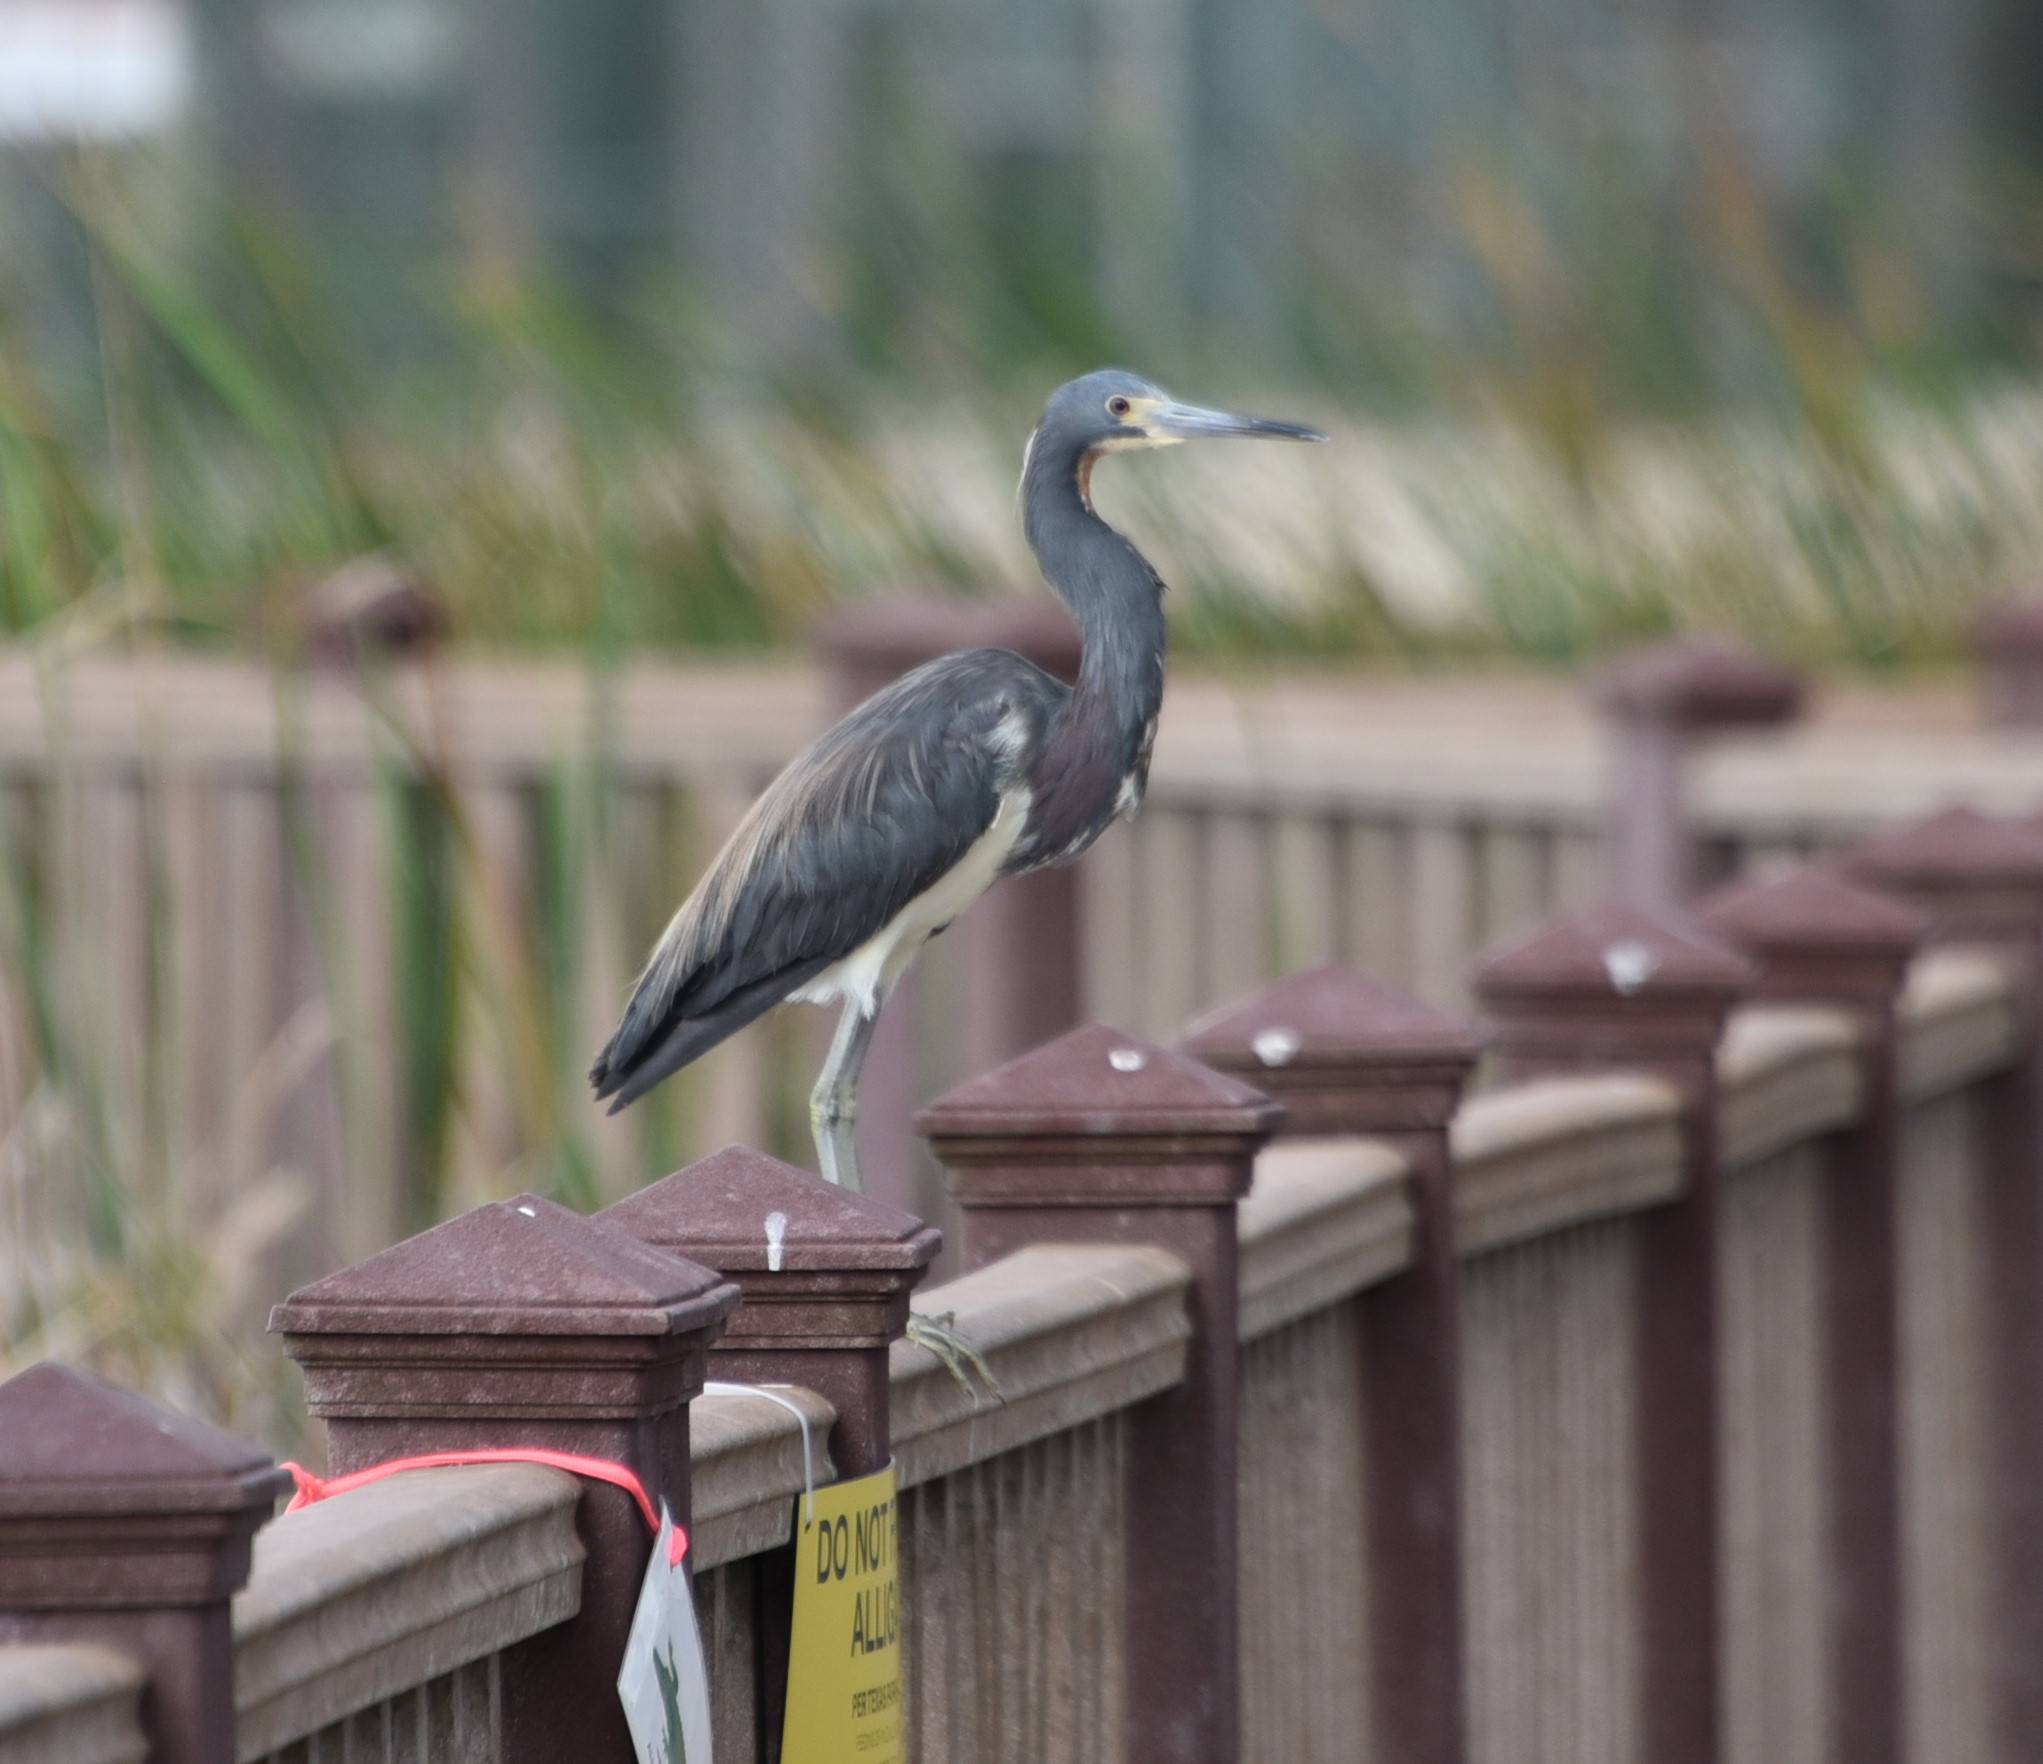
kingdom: Animalia
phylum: Chordata
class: Aves
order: Pelecaniformes
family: Ardeidae
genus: Egretta
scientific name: Egretta tricolor
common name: Tricolored heron
